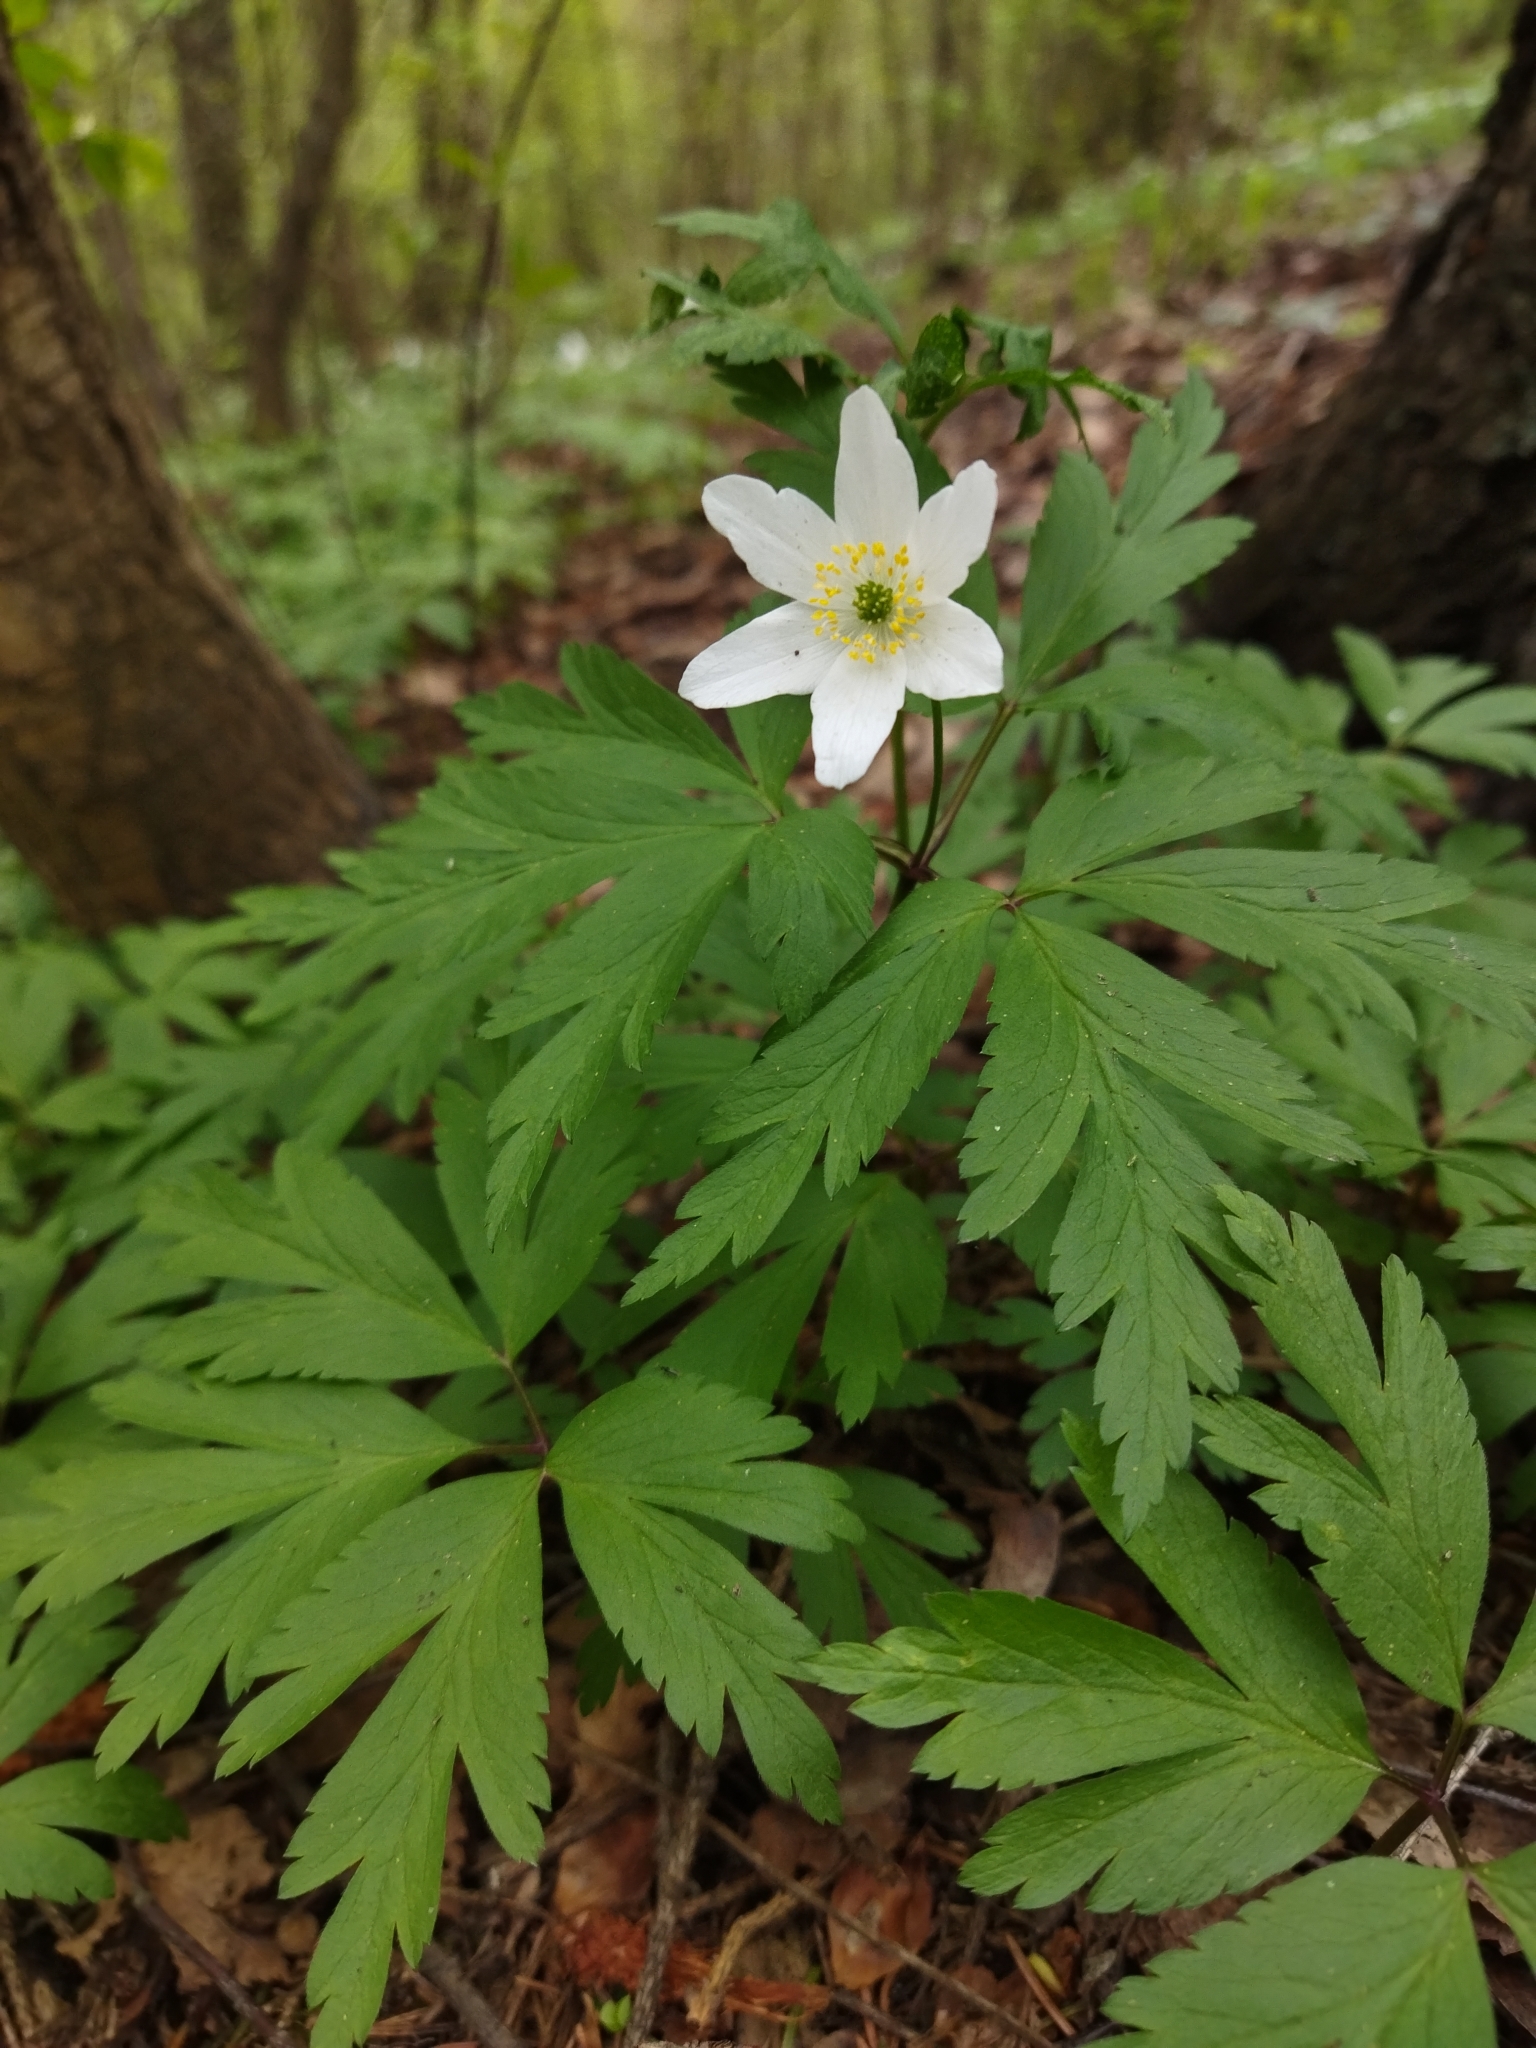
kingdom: Plantae
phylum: Tracheophyta
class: Magnoliopsida
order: Ranunculales
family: Ranunculaceae
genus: Anemone
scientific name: Anemone nemorosa
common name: Wood anemone
